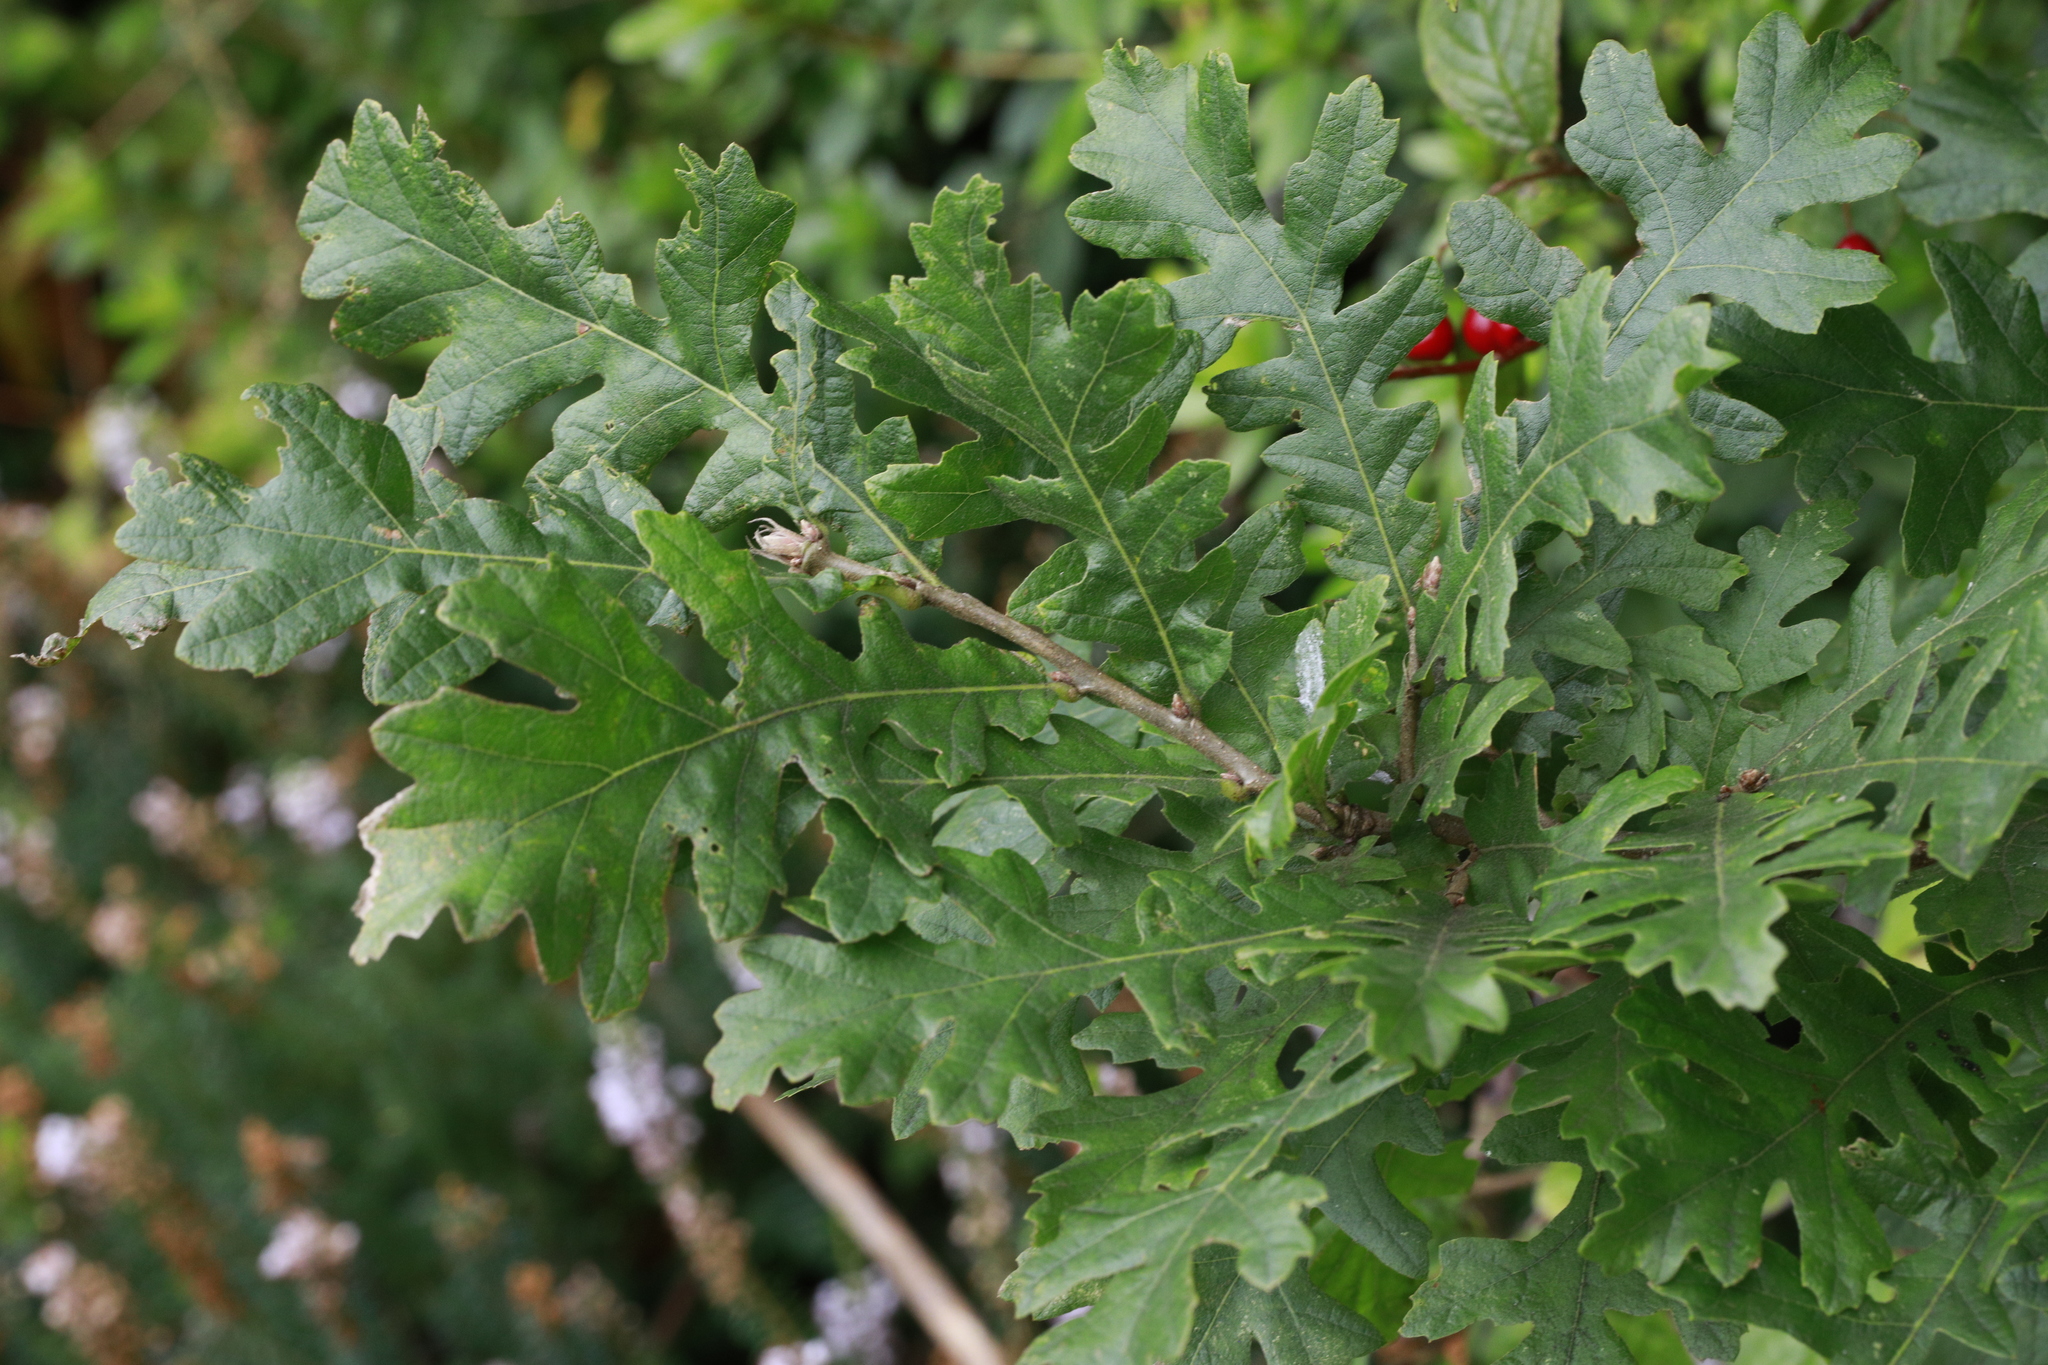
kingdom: Plantae
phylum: Tracheophyta
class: Magnoliopsida
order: Fagales
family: Fagaceae
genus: Quercus
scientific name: Quercus cerris
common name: Turkey oak
